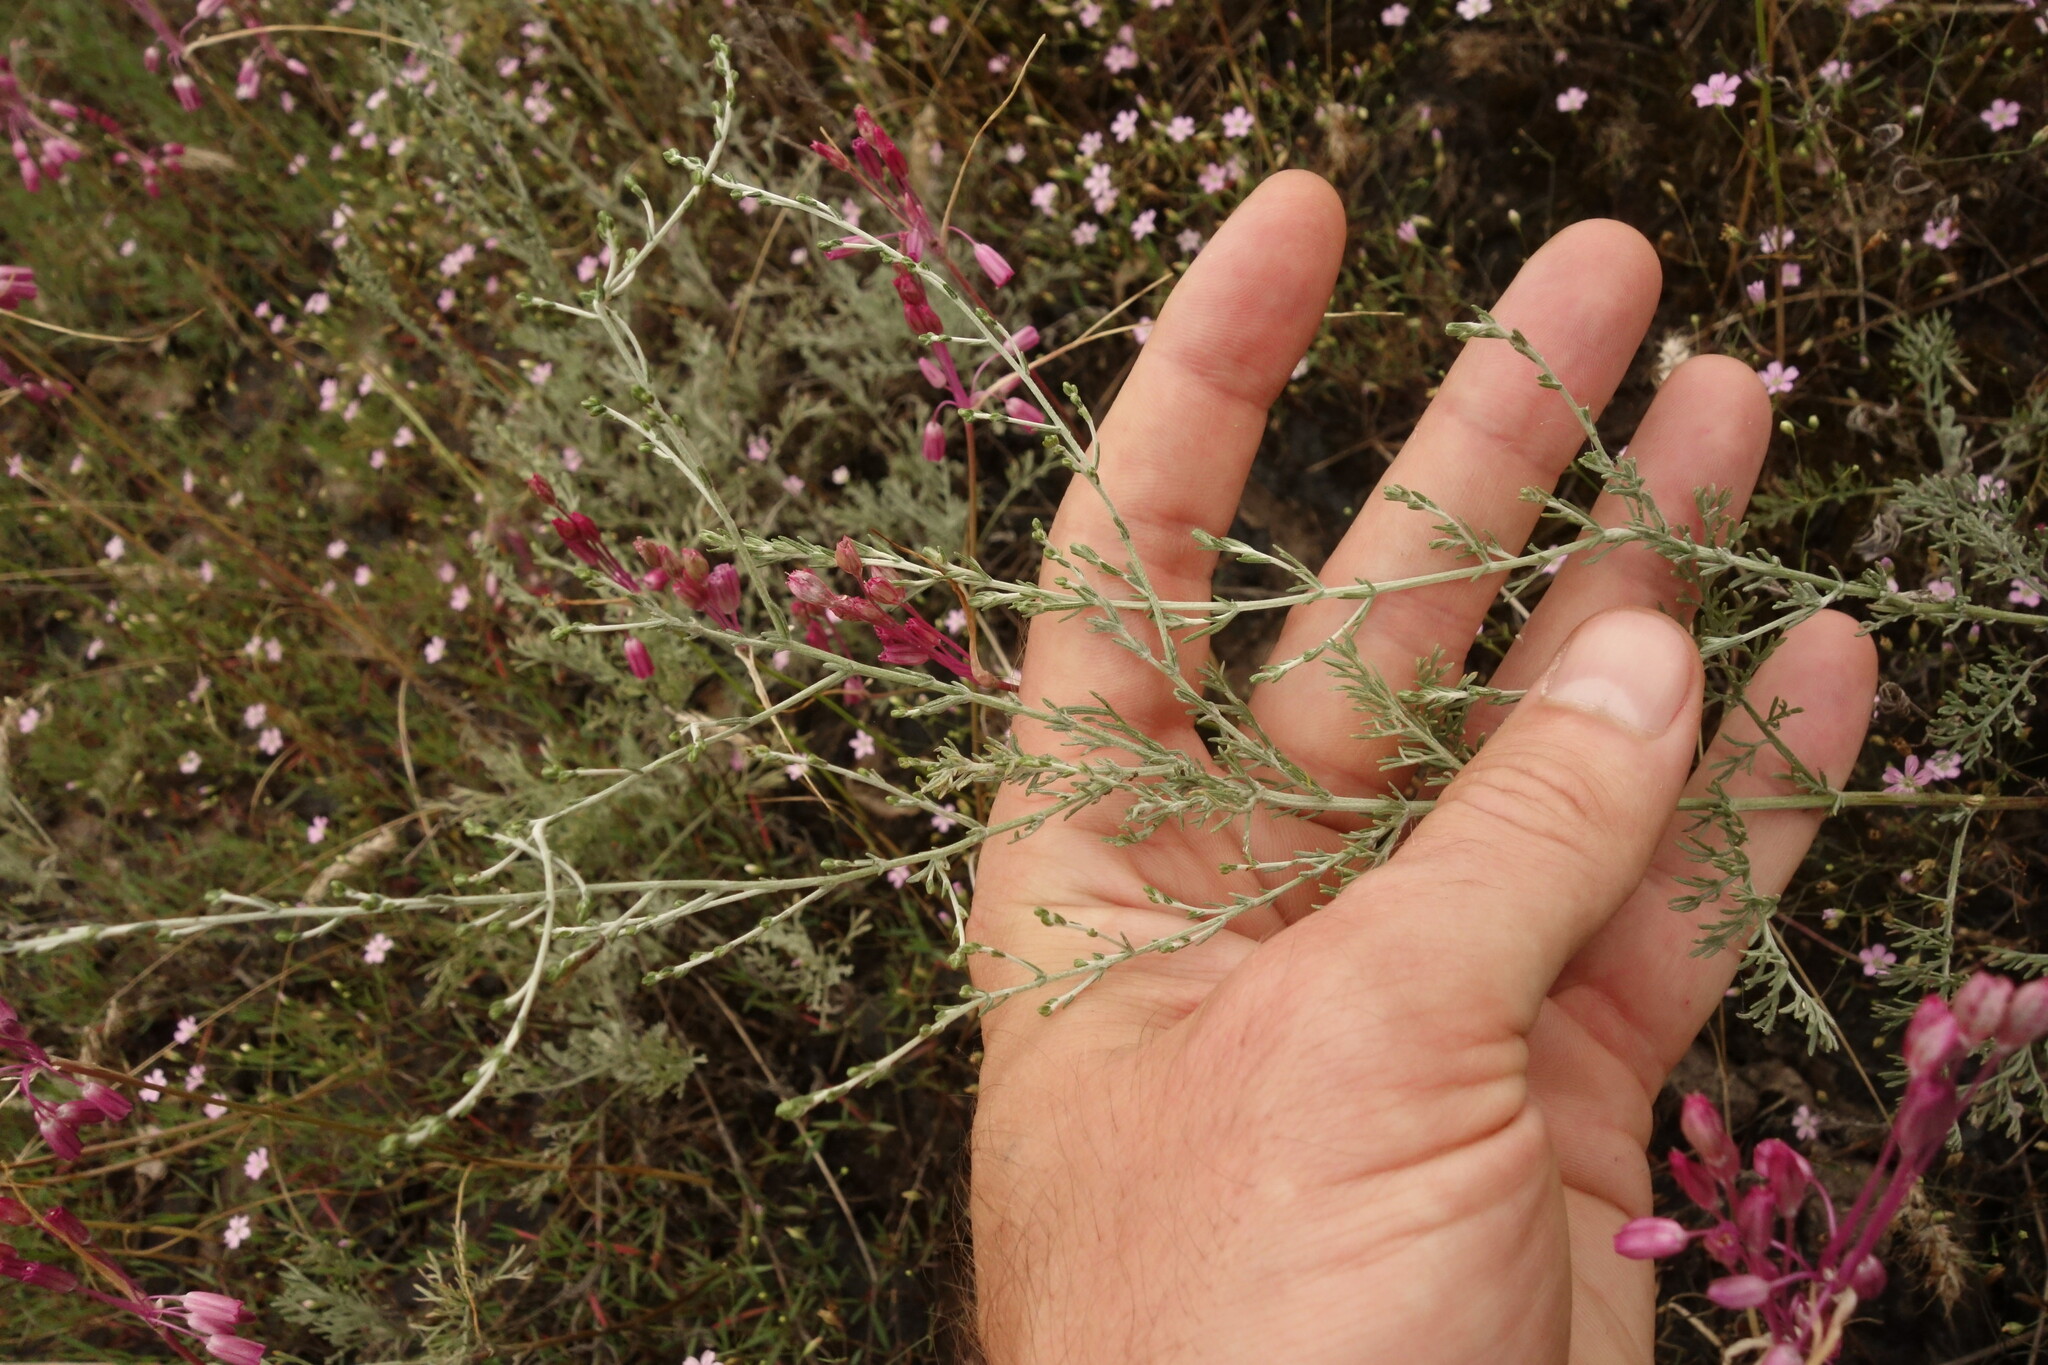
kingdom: Plantae
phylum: Tracheophyta
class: Magnoliopsida
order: Asterales
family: Asteraceae
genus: Artemisia
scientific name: Artemisia santonicum
